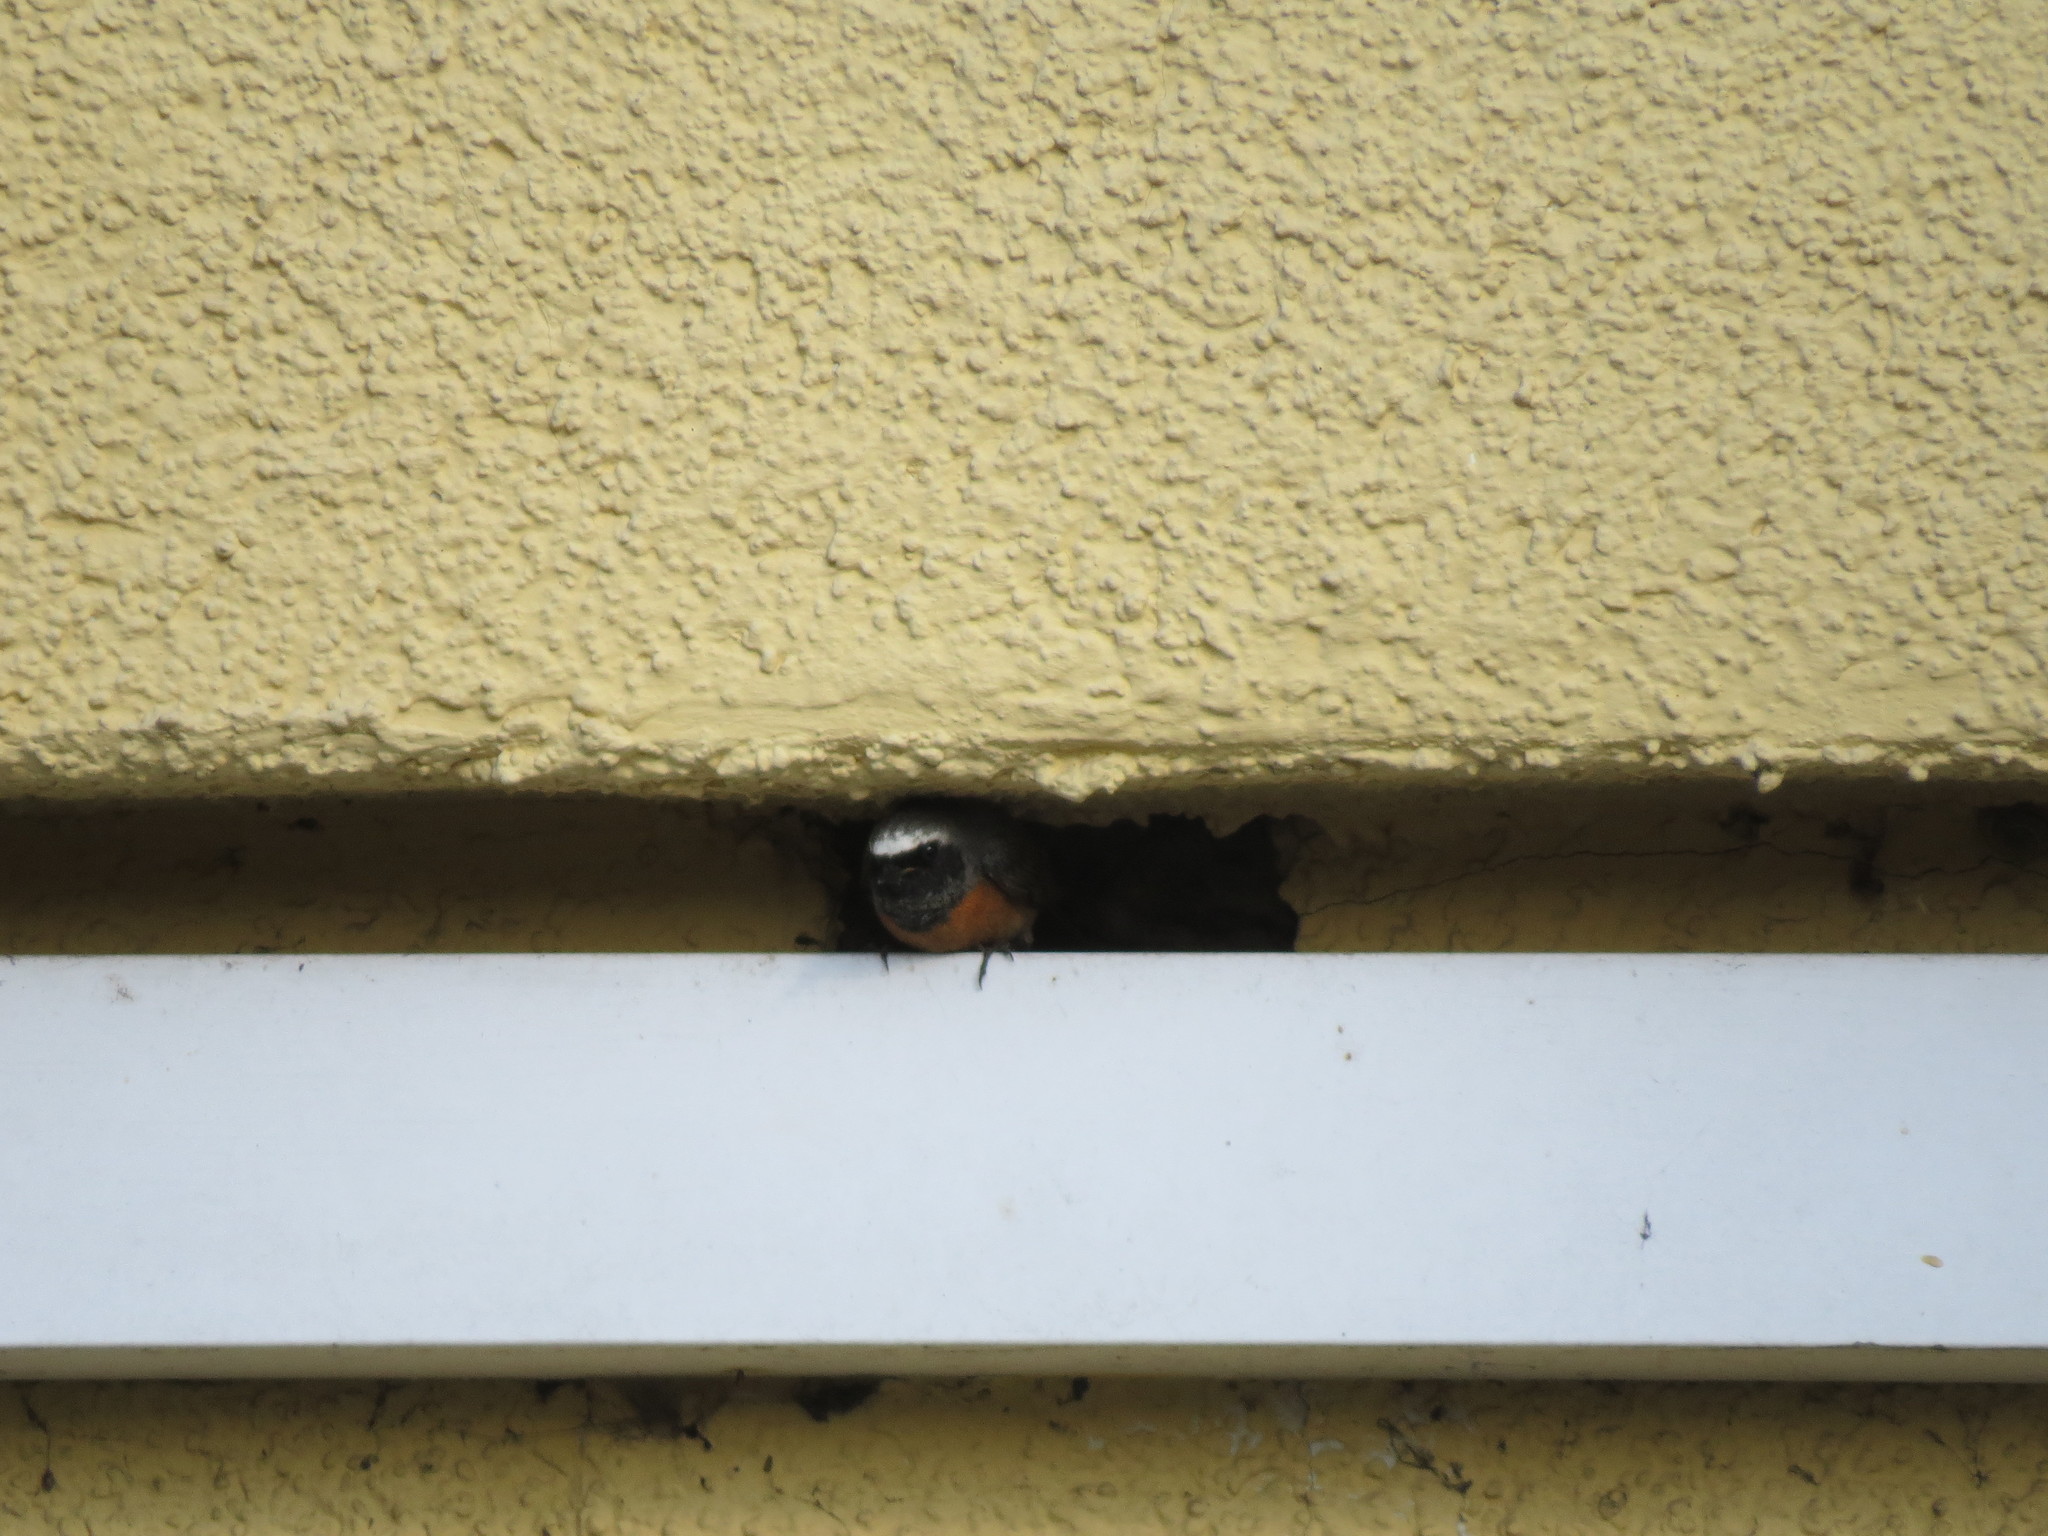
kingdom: Animalia
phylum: Chordata
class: Aves
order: Passeriformes
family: Muscicapidae
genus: Phoenicurus
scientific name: Phoenicurus phoenicurus
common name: Common redstart
